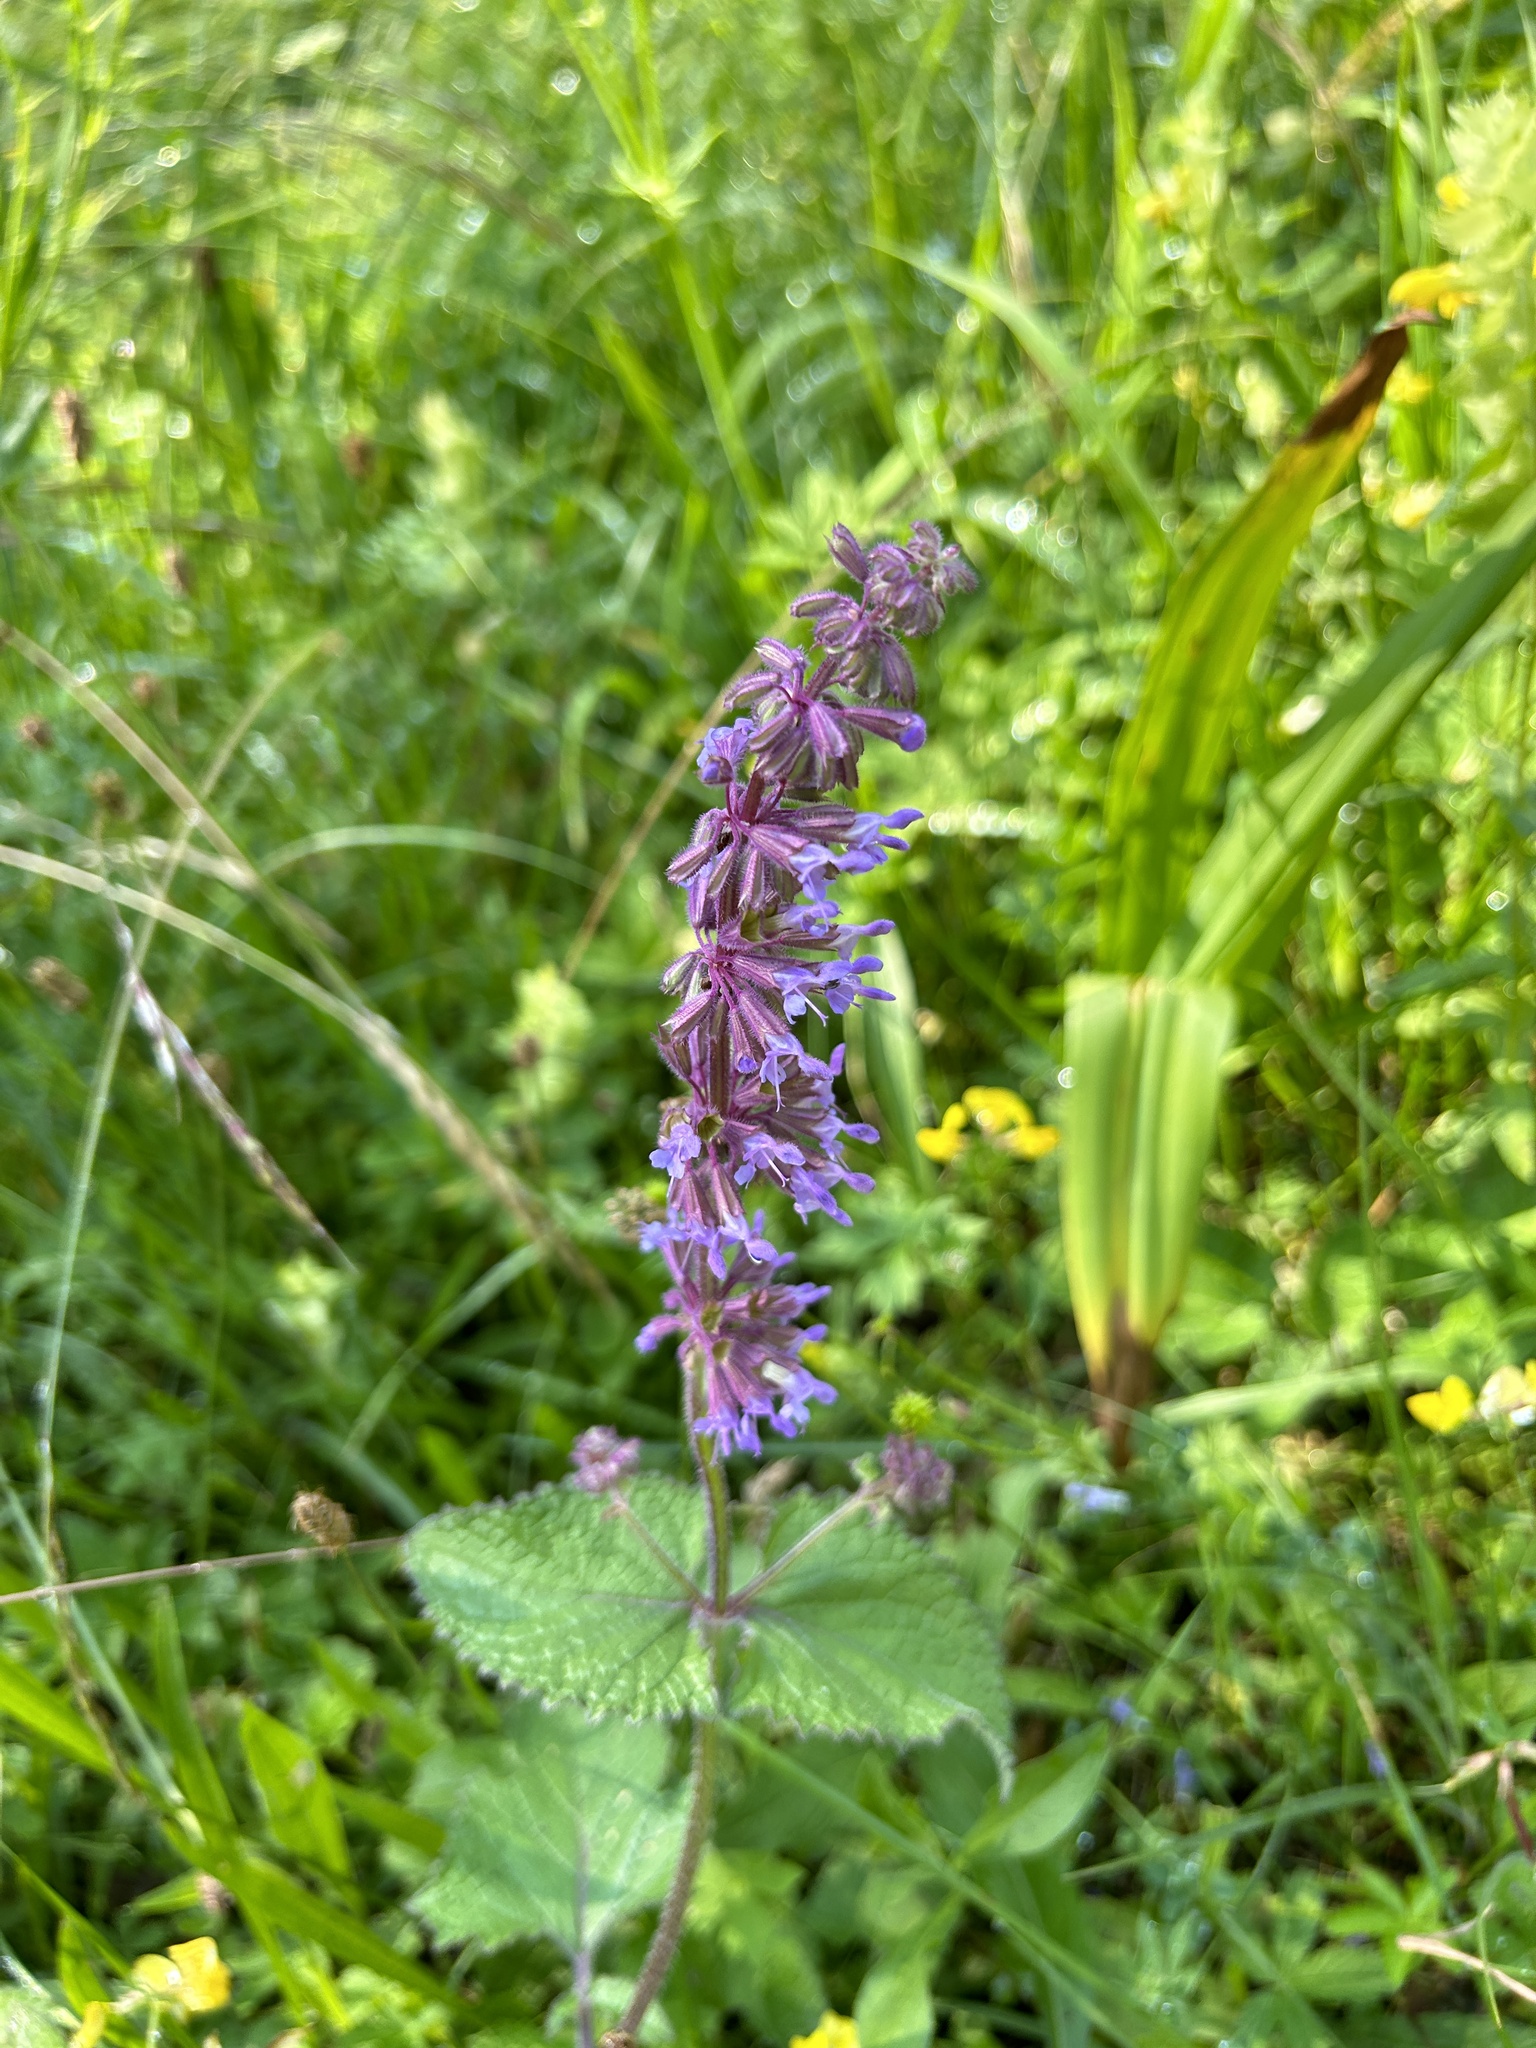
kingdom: Plantae
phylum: Tracheophyta
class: Magnoliopsida
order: Lamiales
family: Lamiaceae
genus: Salvia
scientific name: Salvia verticillata
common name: Whorled clary
